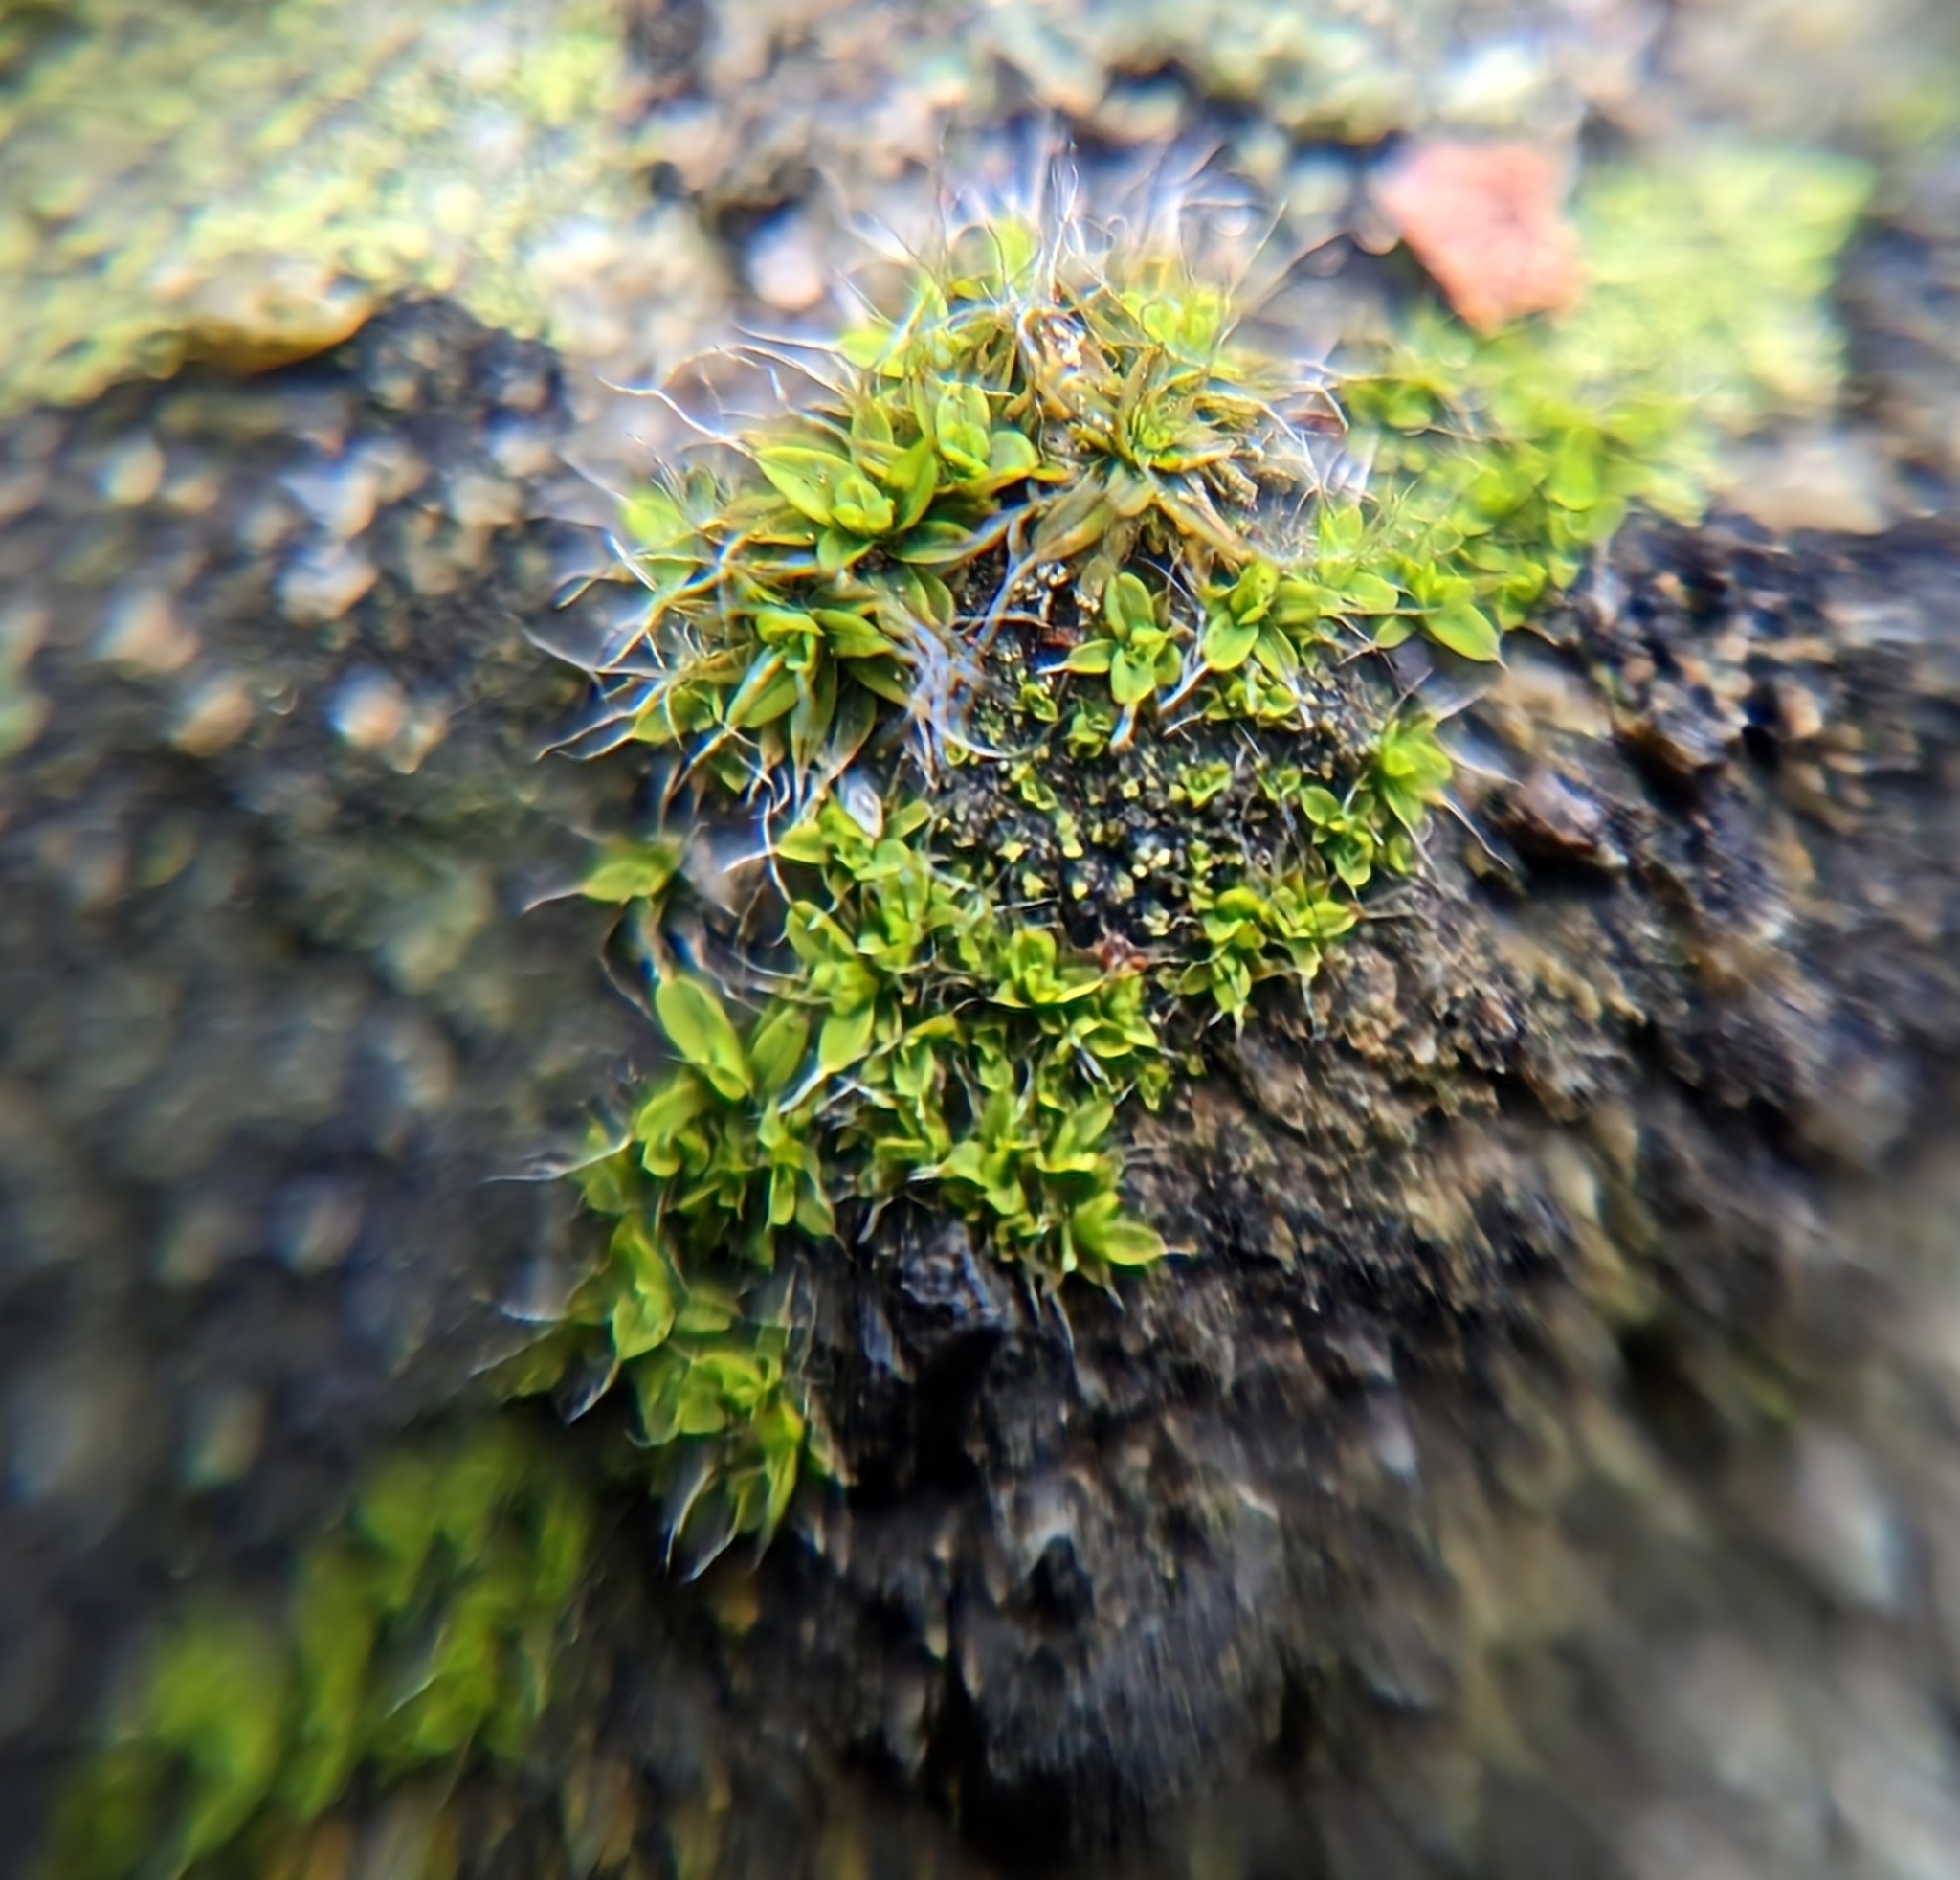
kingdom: Plantae
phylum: Bryophyta
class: Bryopsida
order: Pottiales
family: Pottiaceae
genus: Tortula
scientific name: Tortula muralis
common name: Wall screw-moss
